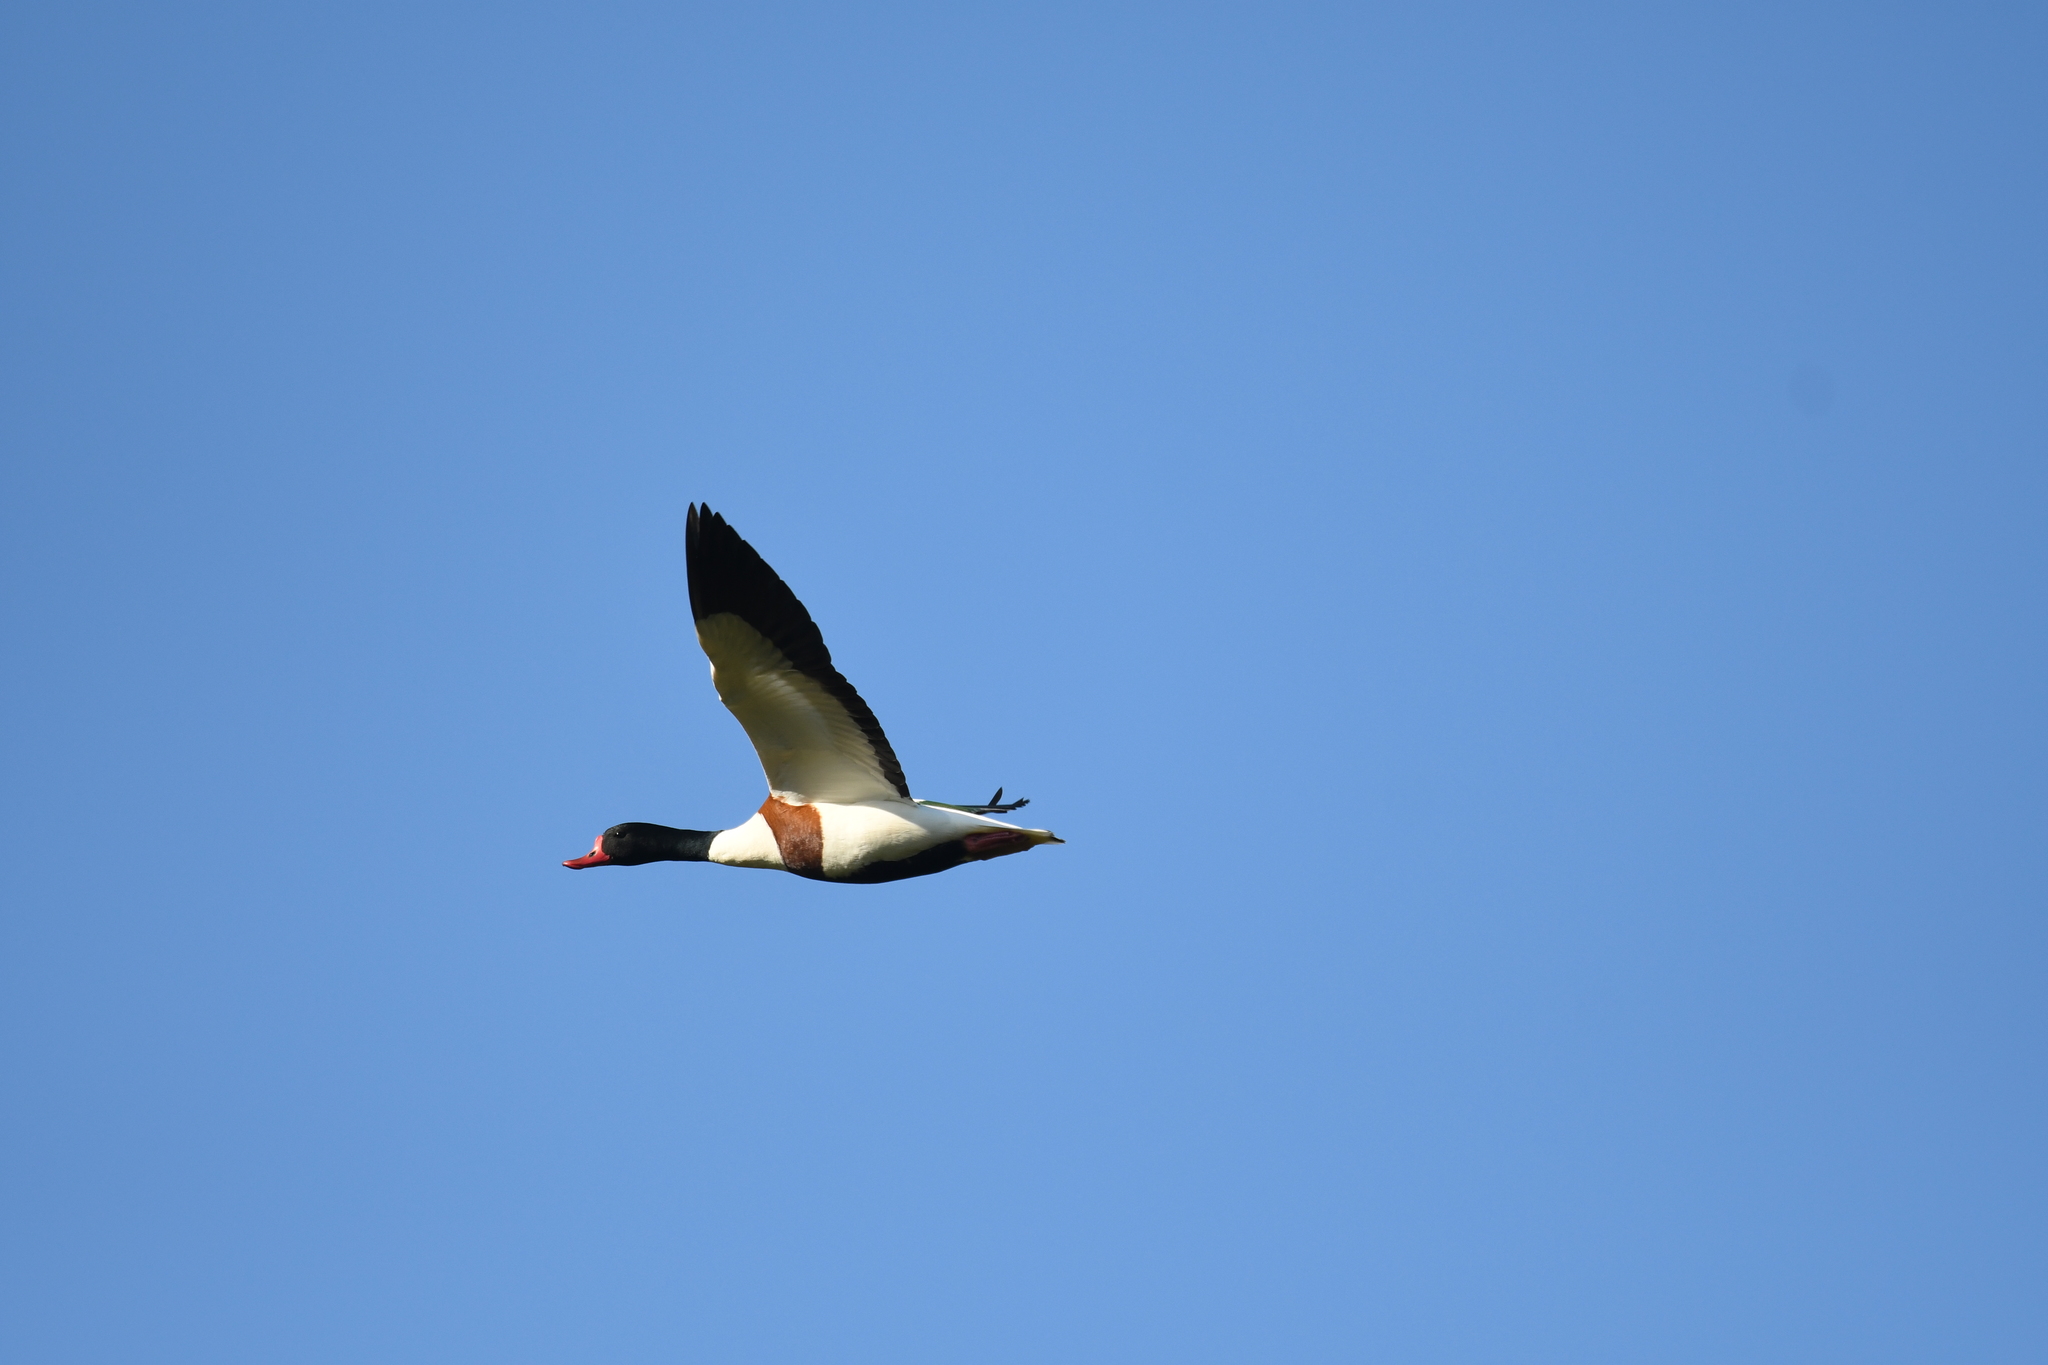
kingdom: Animalia
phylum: Chordata
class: Aves
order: Anseriformes
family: Anatidae
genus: Tadorna
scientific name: Tadorna tadorna
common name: Common shelduck
